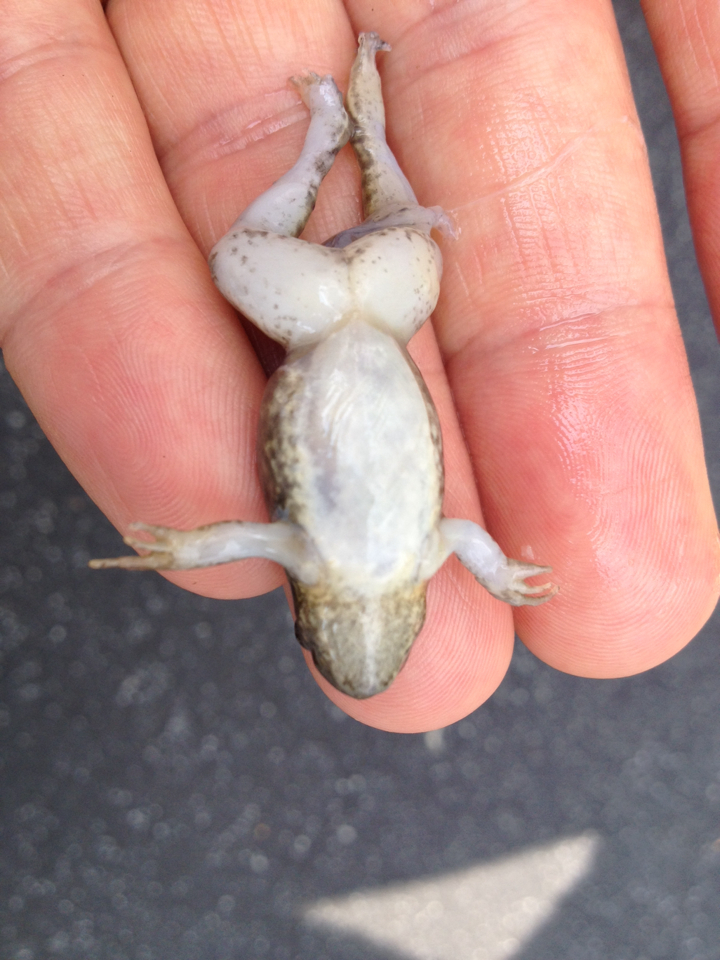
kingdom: Animalia
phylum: Chordata
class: Amphibia
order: Anura
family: Ranidae
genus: Lithobates
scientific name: Lithobates clamitans
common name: Green frog
